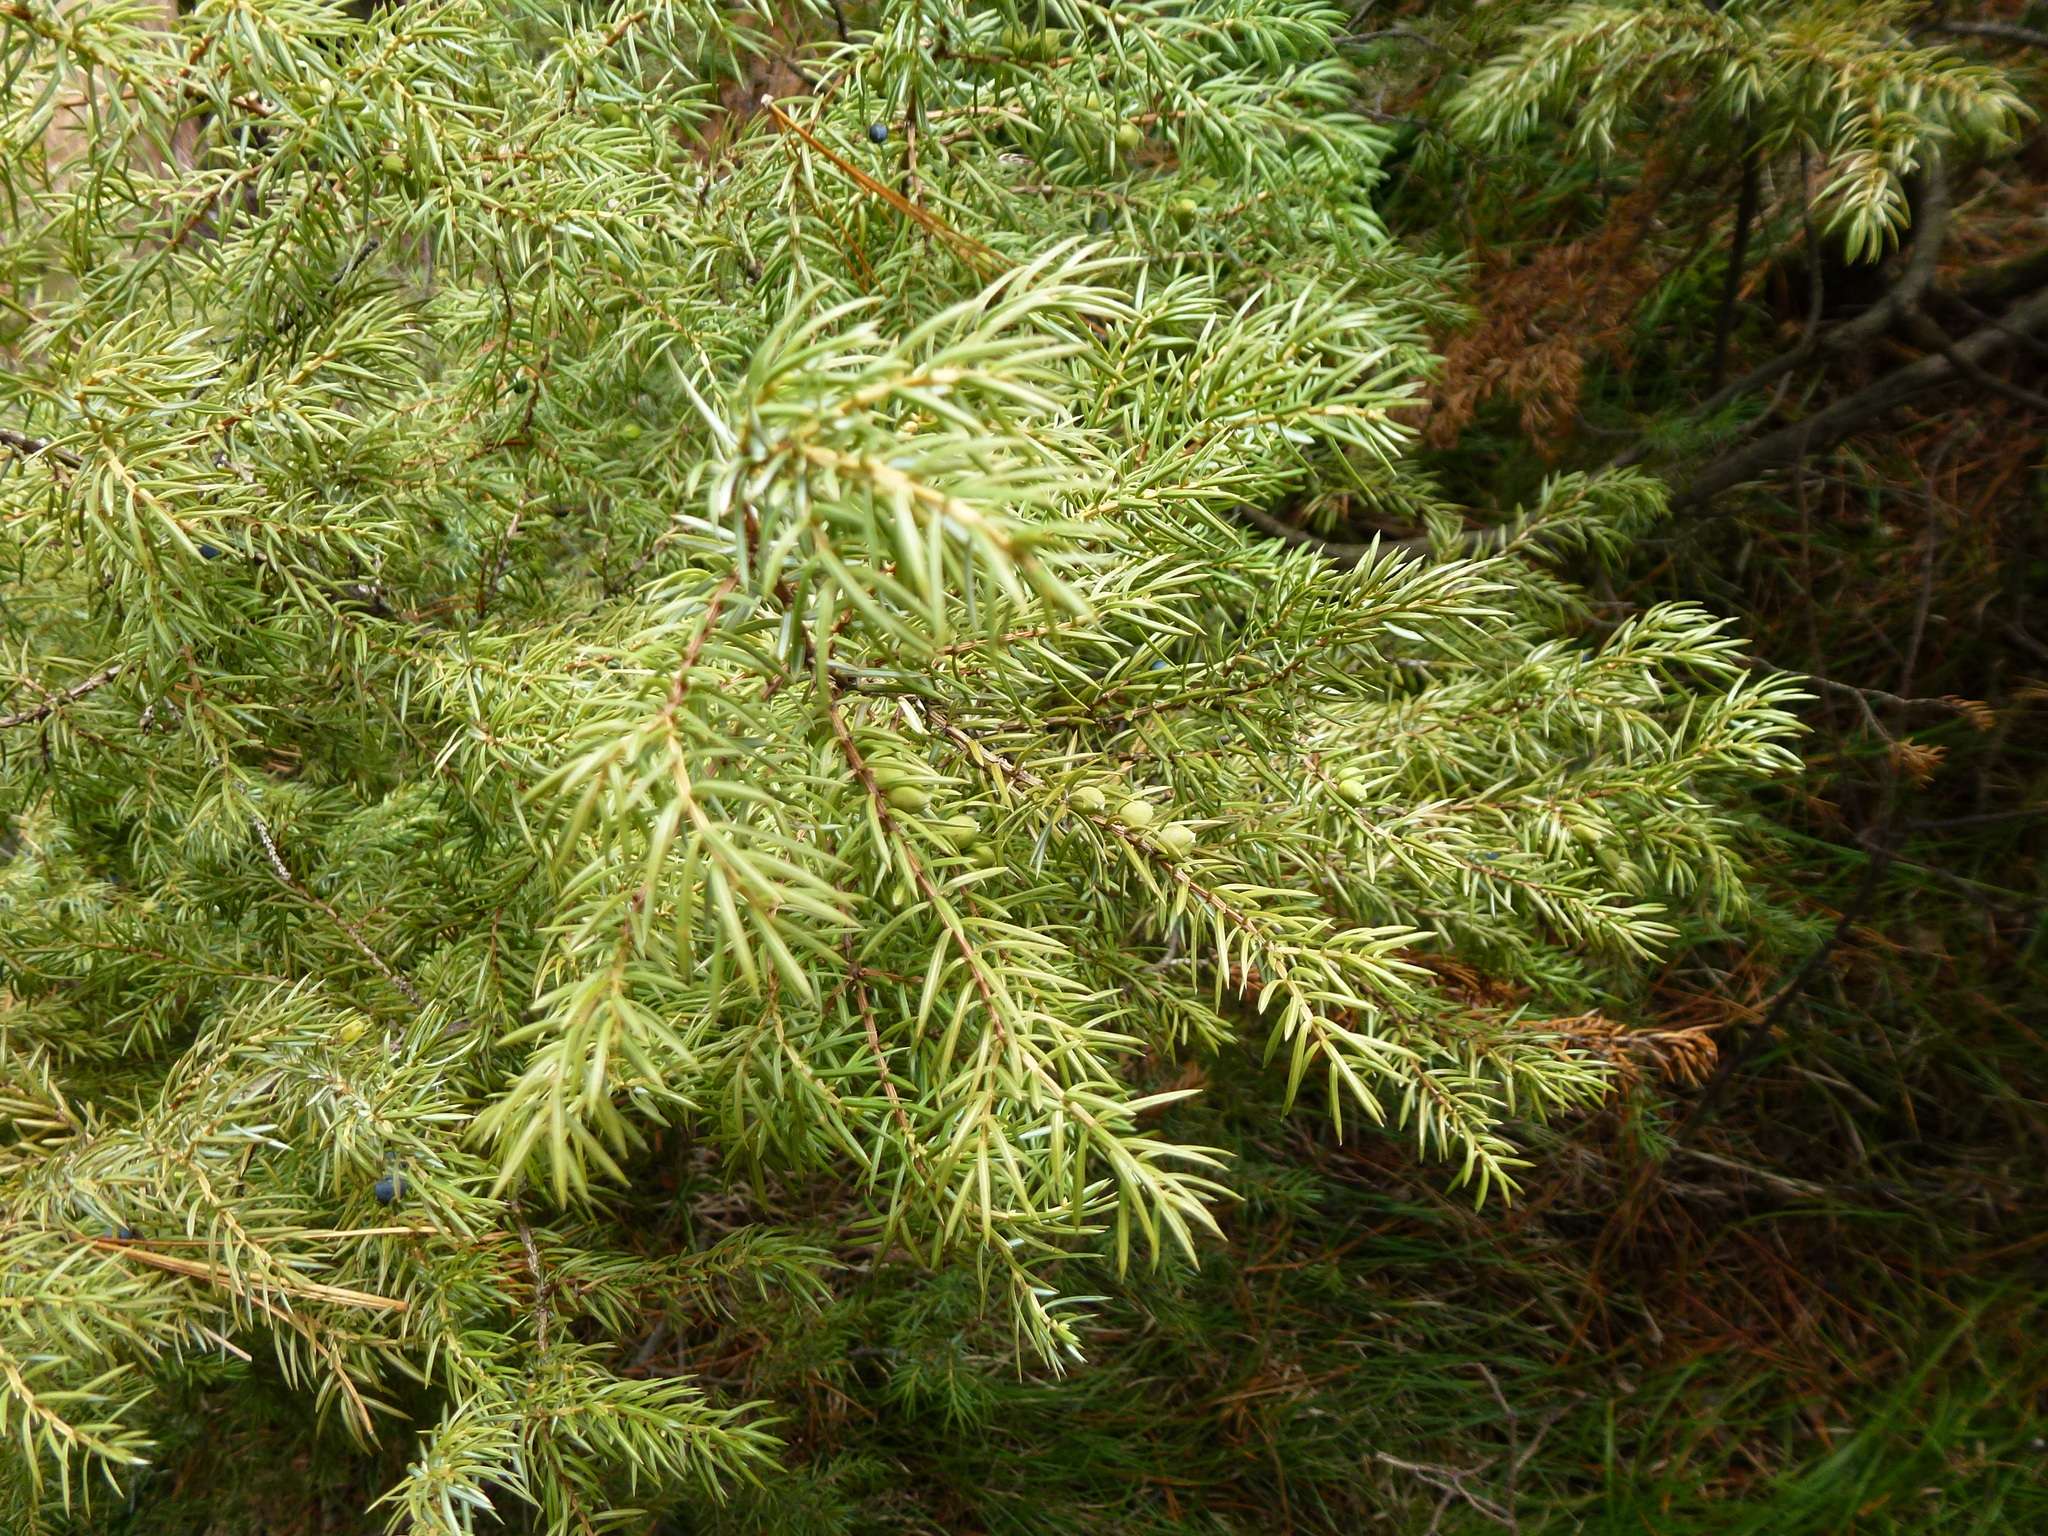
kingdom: Plantae
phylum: Tracheophyta
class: Pinopsida
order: Pinales
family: Cupressaceae
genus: Juniperus
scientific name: Juniperus communis
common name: Common juniper
